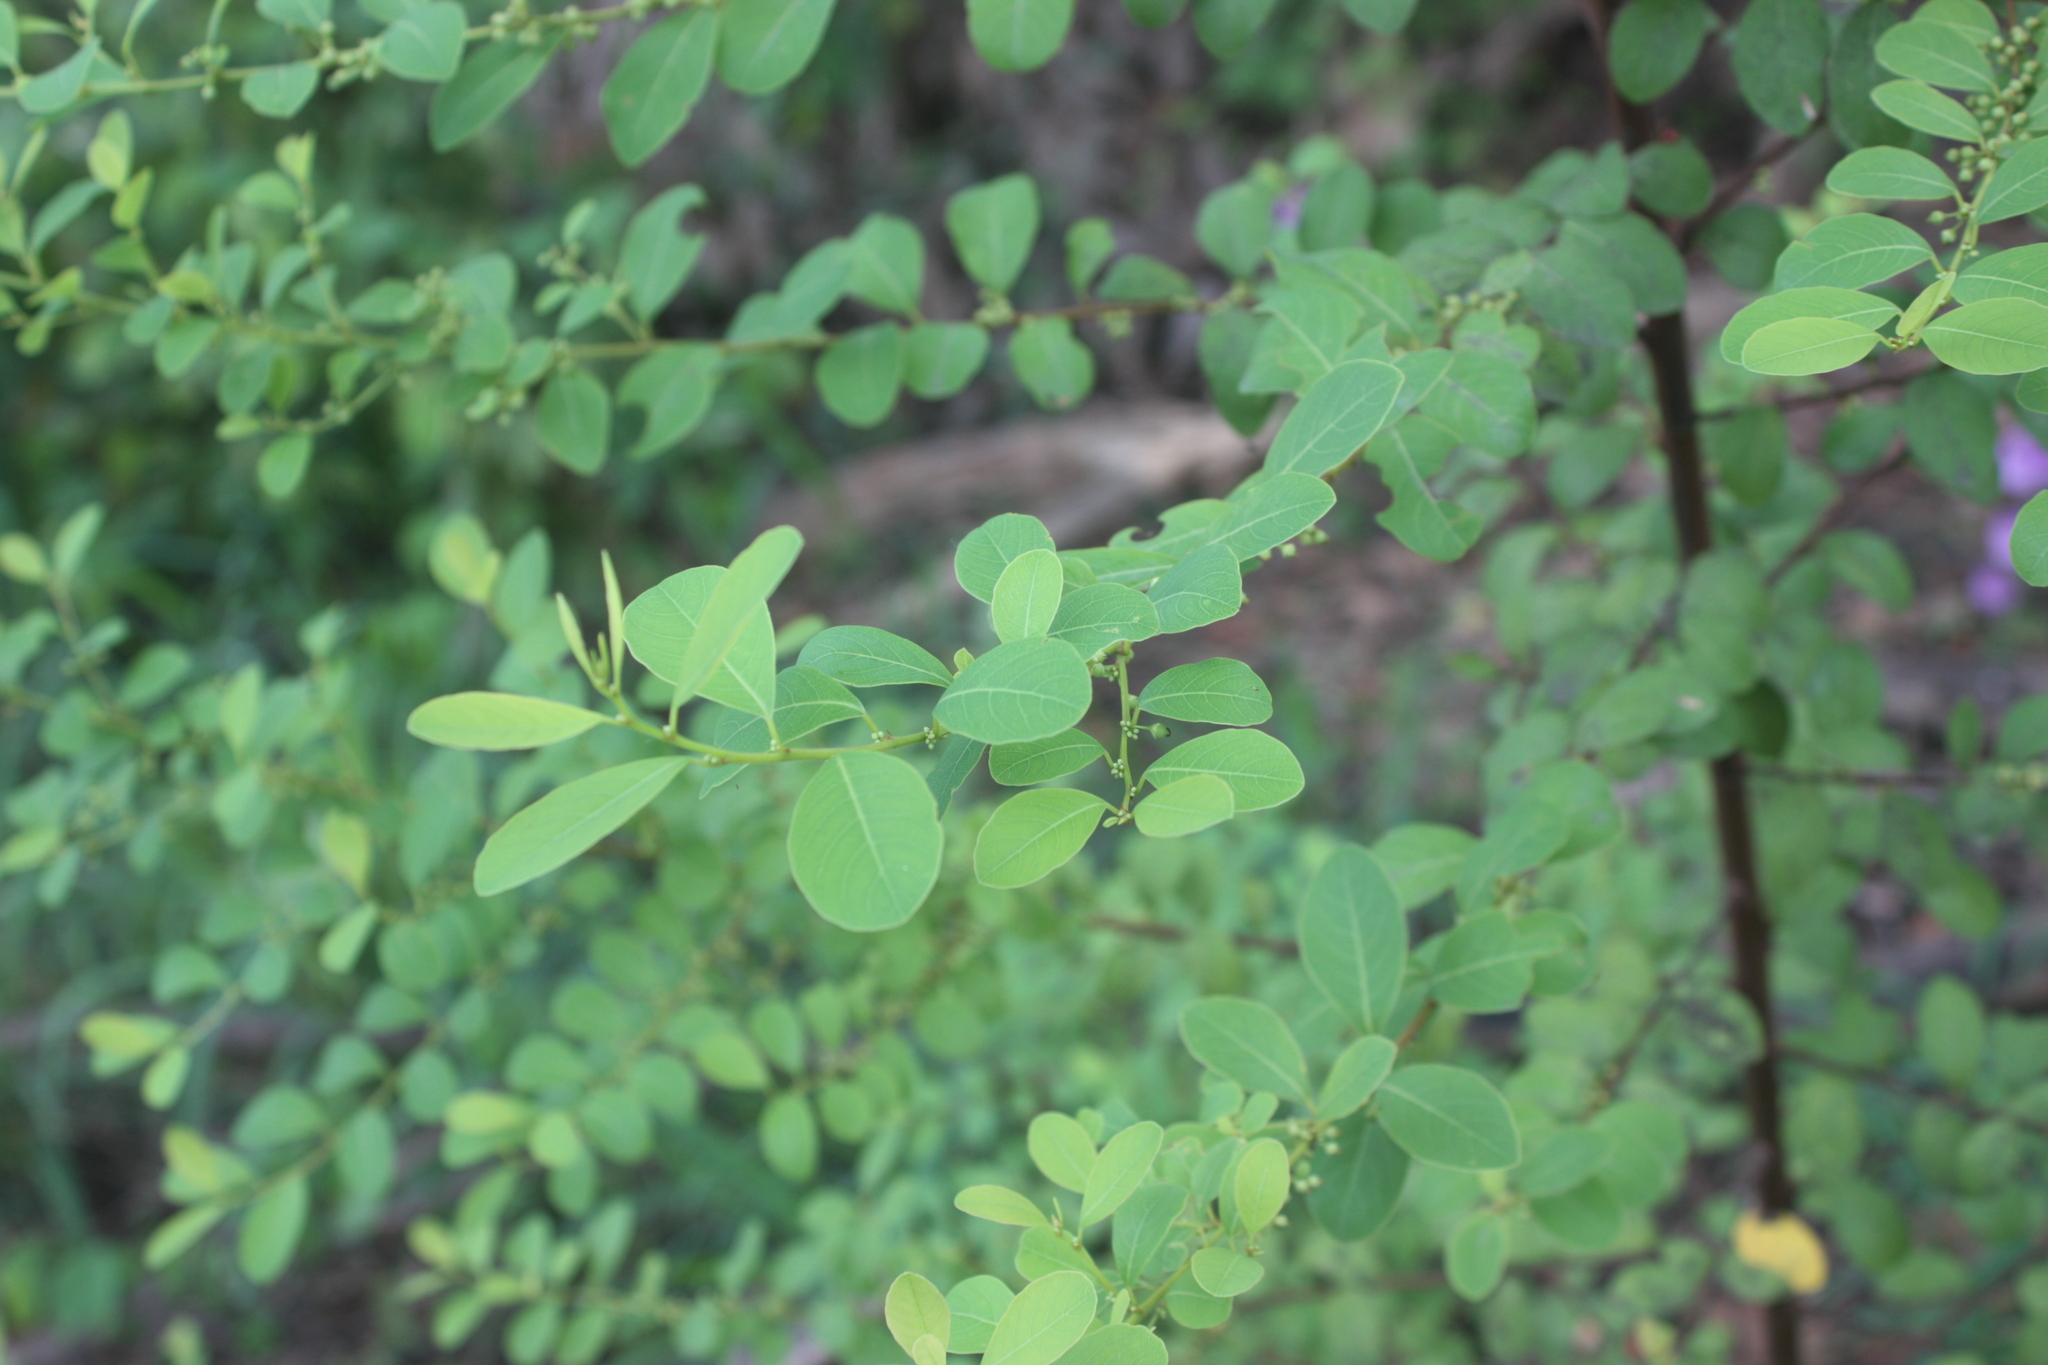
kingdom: Plantae
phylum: Tracheophyta
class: Magnoliopsida
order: Malpighiales
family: Phyllanthaceae
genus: Flueggea
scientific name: Flueggea virosa
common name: Common bushweed
